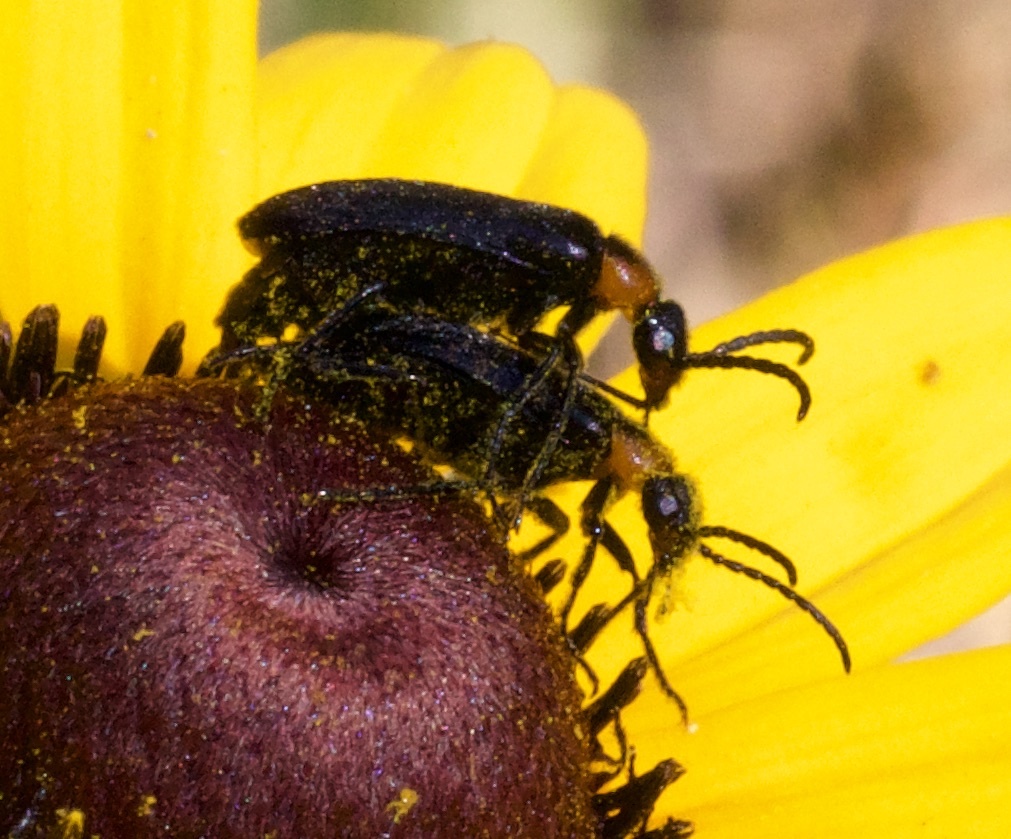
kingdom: Animalia
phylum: Arthropoda
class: Insecta
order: Coleoptera
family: Meloidae
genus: Nemognatha
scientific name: Nemognatha nemorensis
